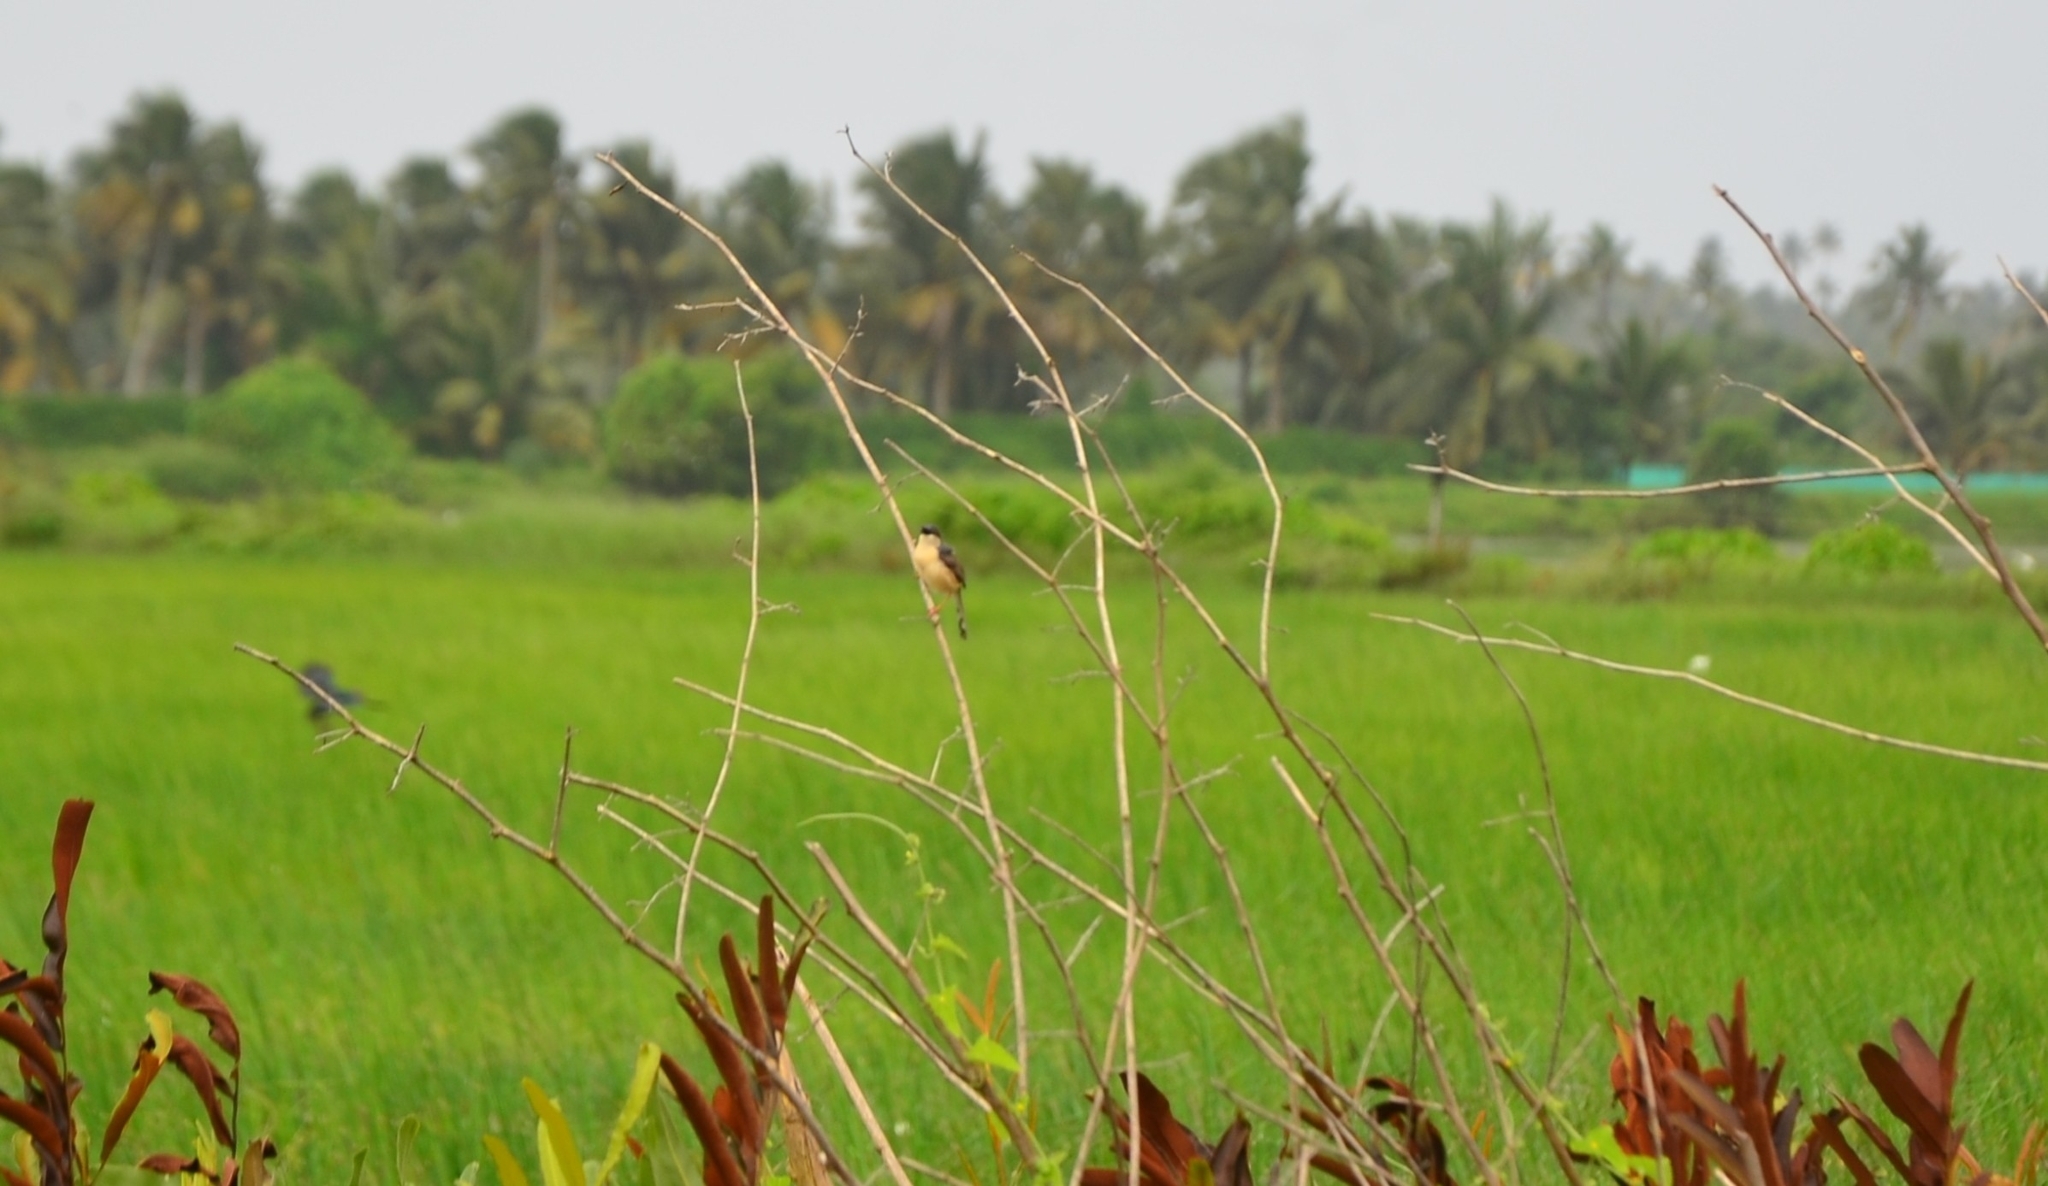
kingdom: Animalia
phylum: Chordata
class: Aves
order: Passeriformes
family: Cisticolidae
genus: Prinia
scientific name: Prinia socialis
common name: Ashy prinia
